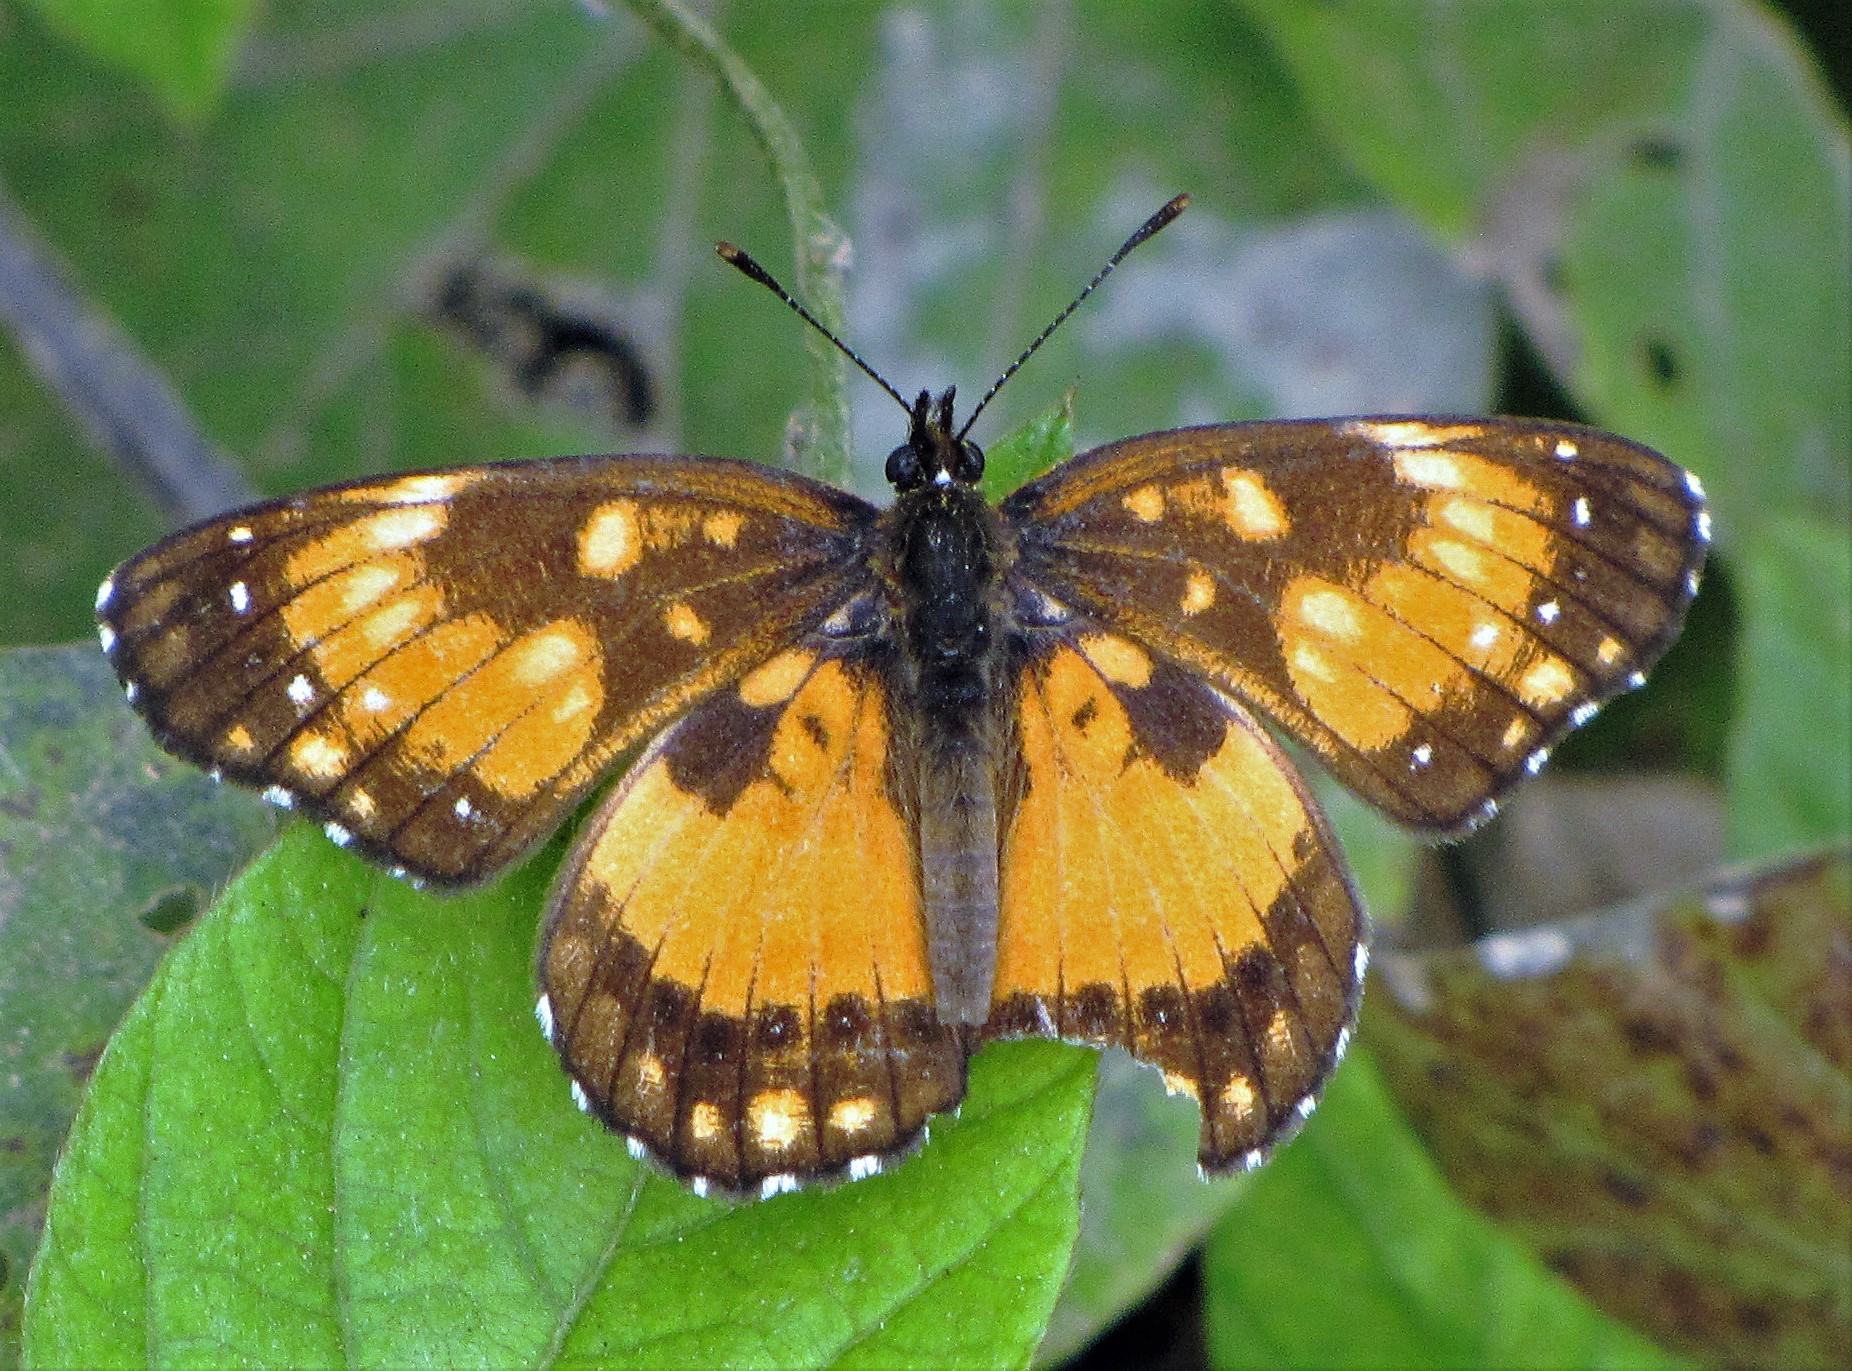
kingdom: Animalia
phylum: Arthropoda
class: Insecta
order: Lepidoptera
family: Nymphalidae
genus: Chlosyne
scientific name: Chlosyne lacinia
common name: Bordered patch
